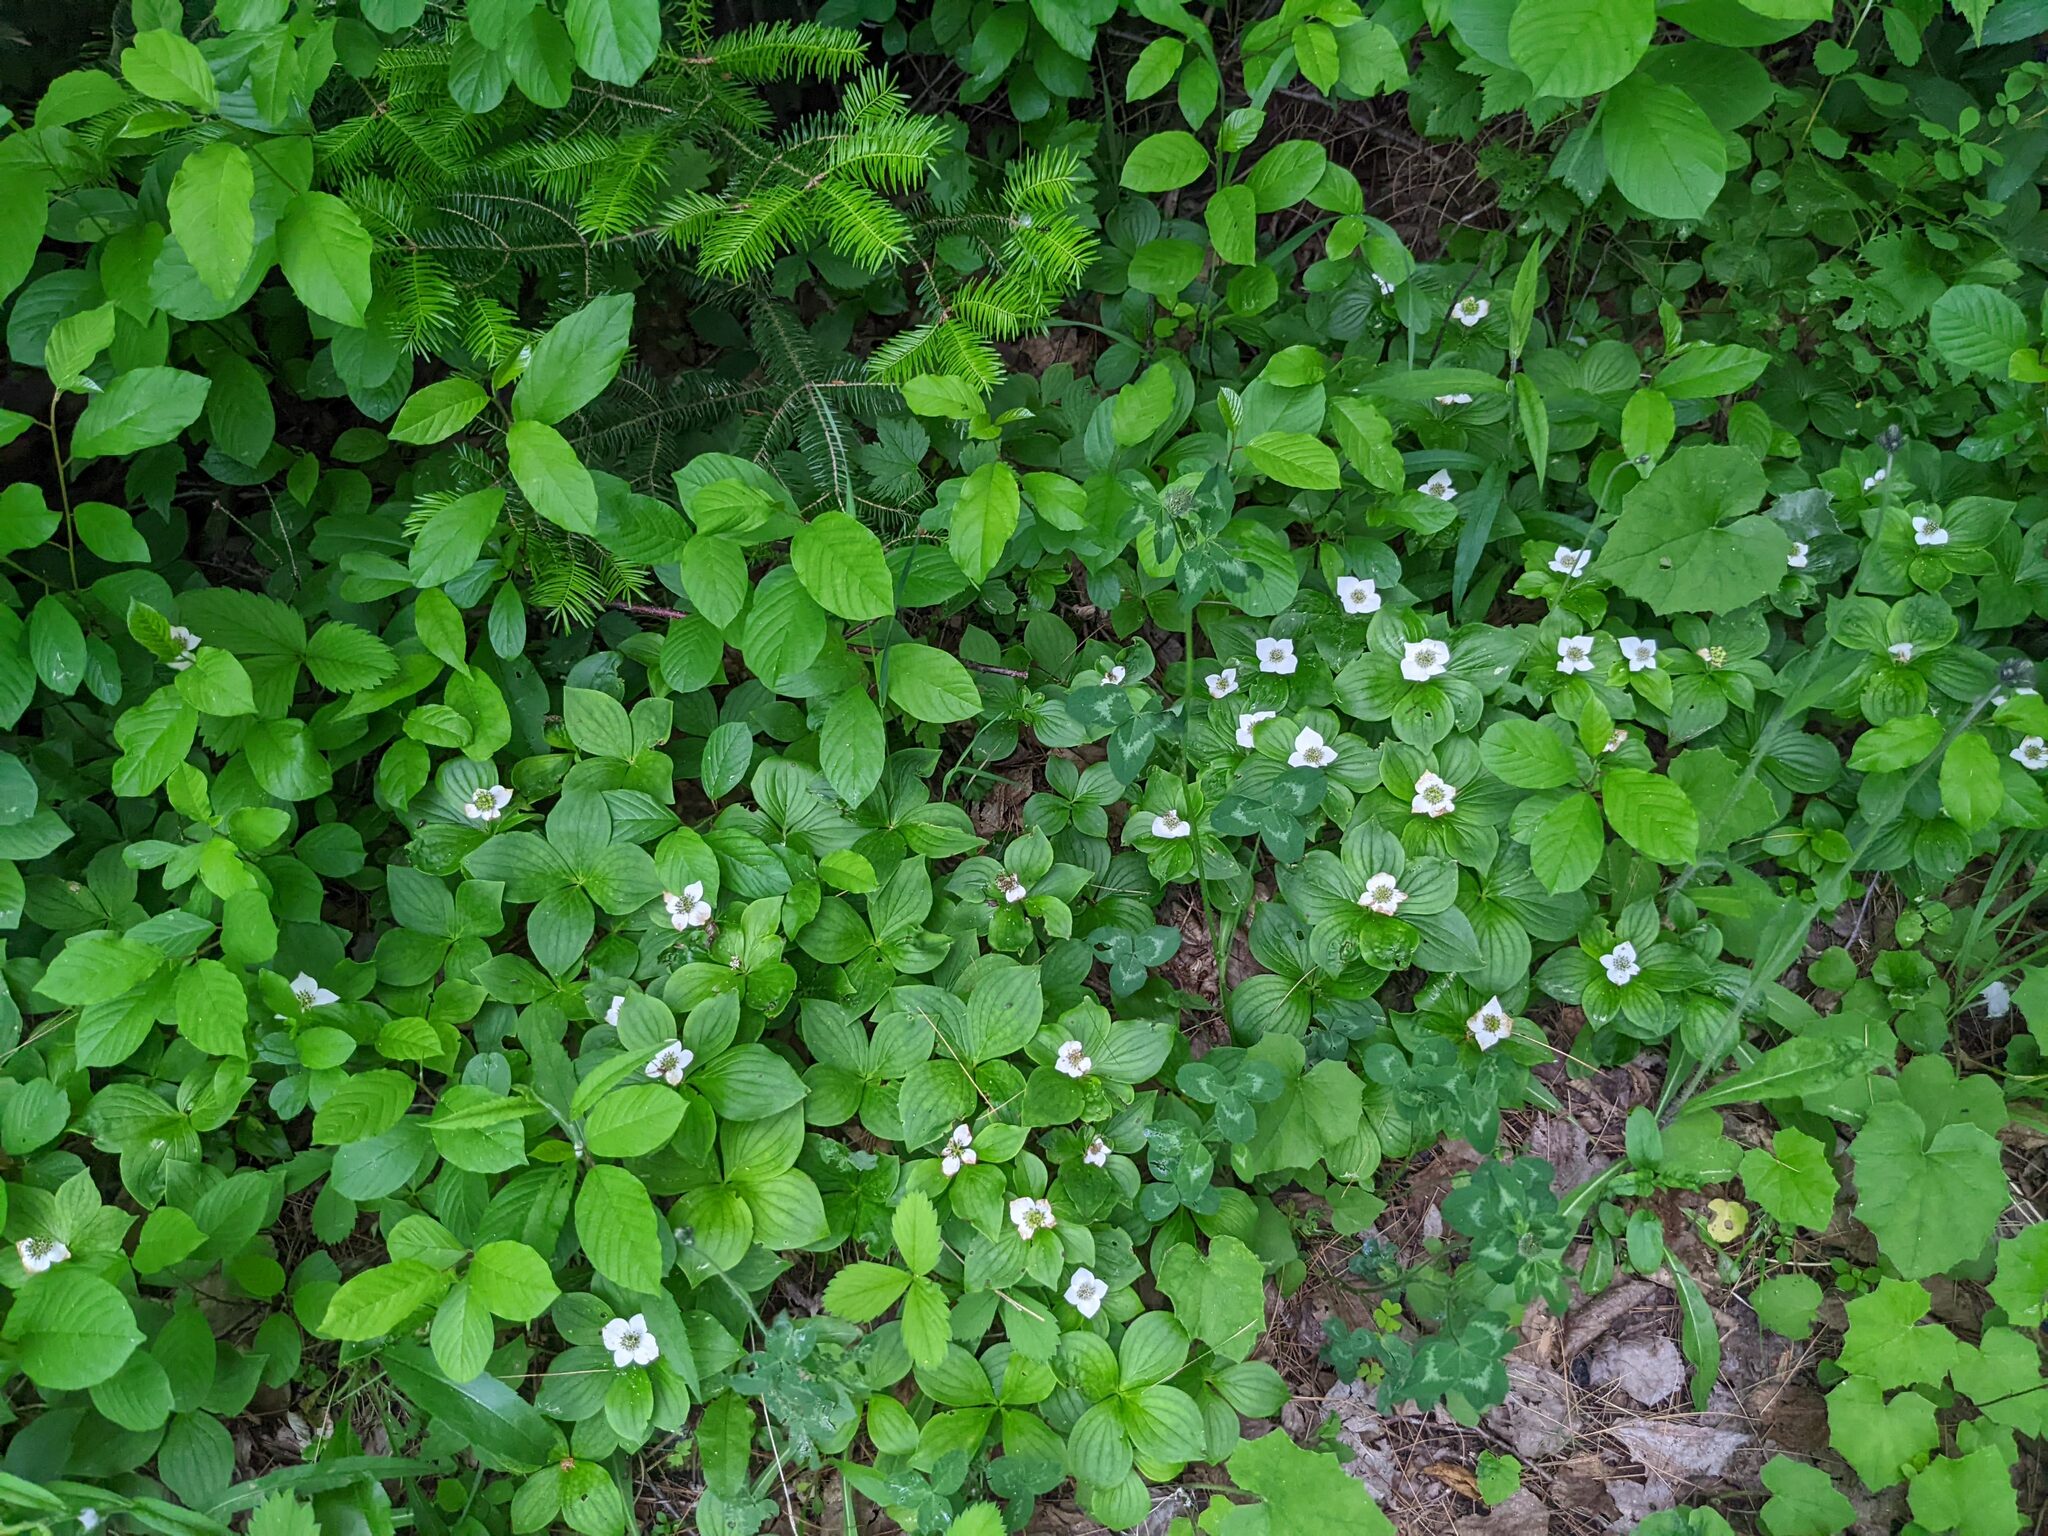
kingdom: Plantae
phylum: Tracheophyta
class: Magnoliopsida
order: Cornales
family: Cornaceae
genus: Cornus
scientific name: Cornus canadensis
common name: Creeping dogwood
